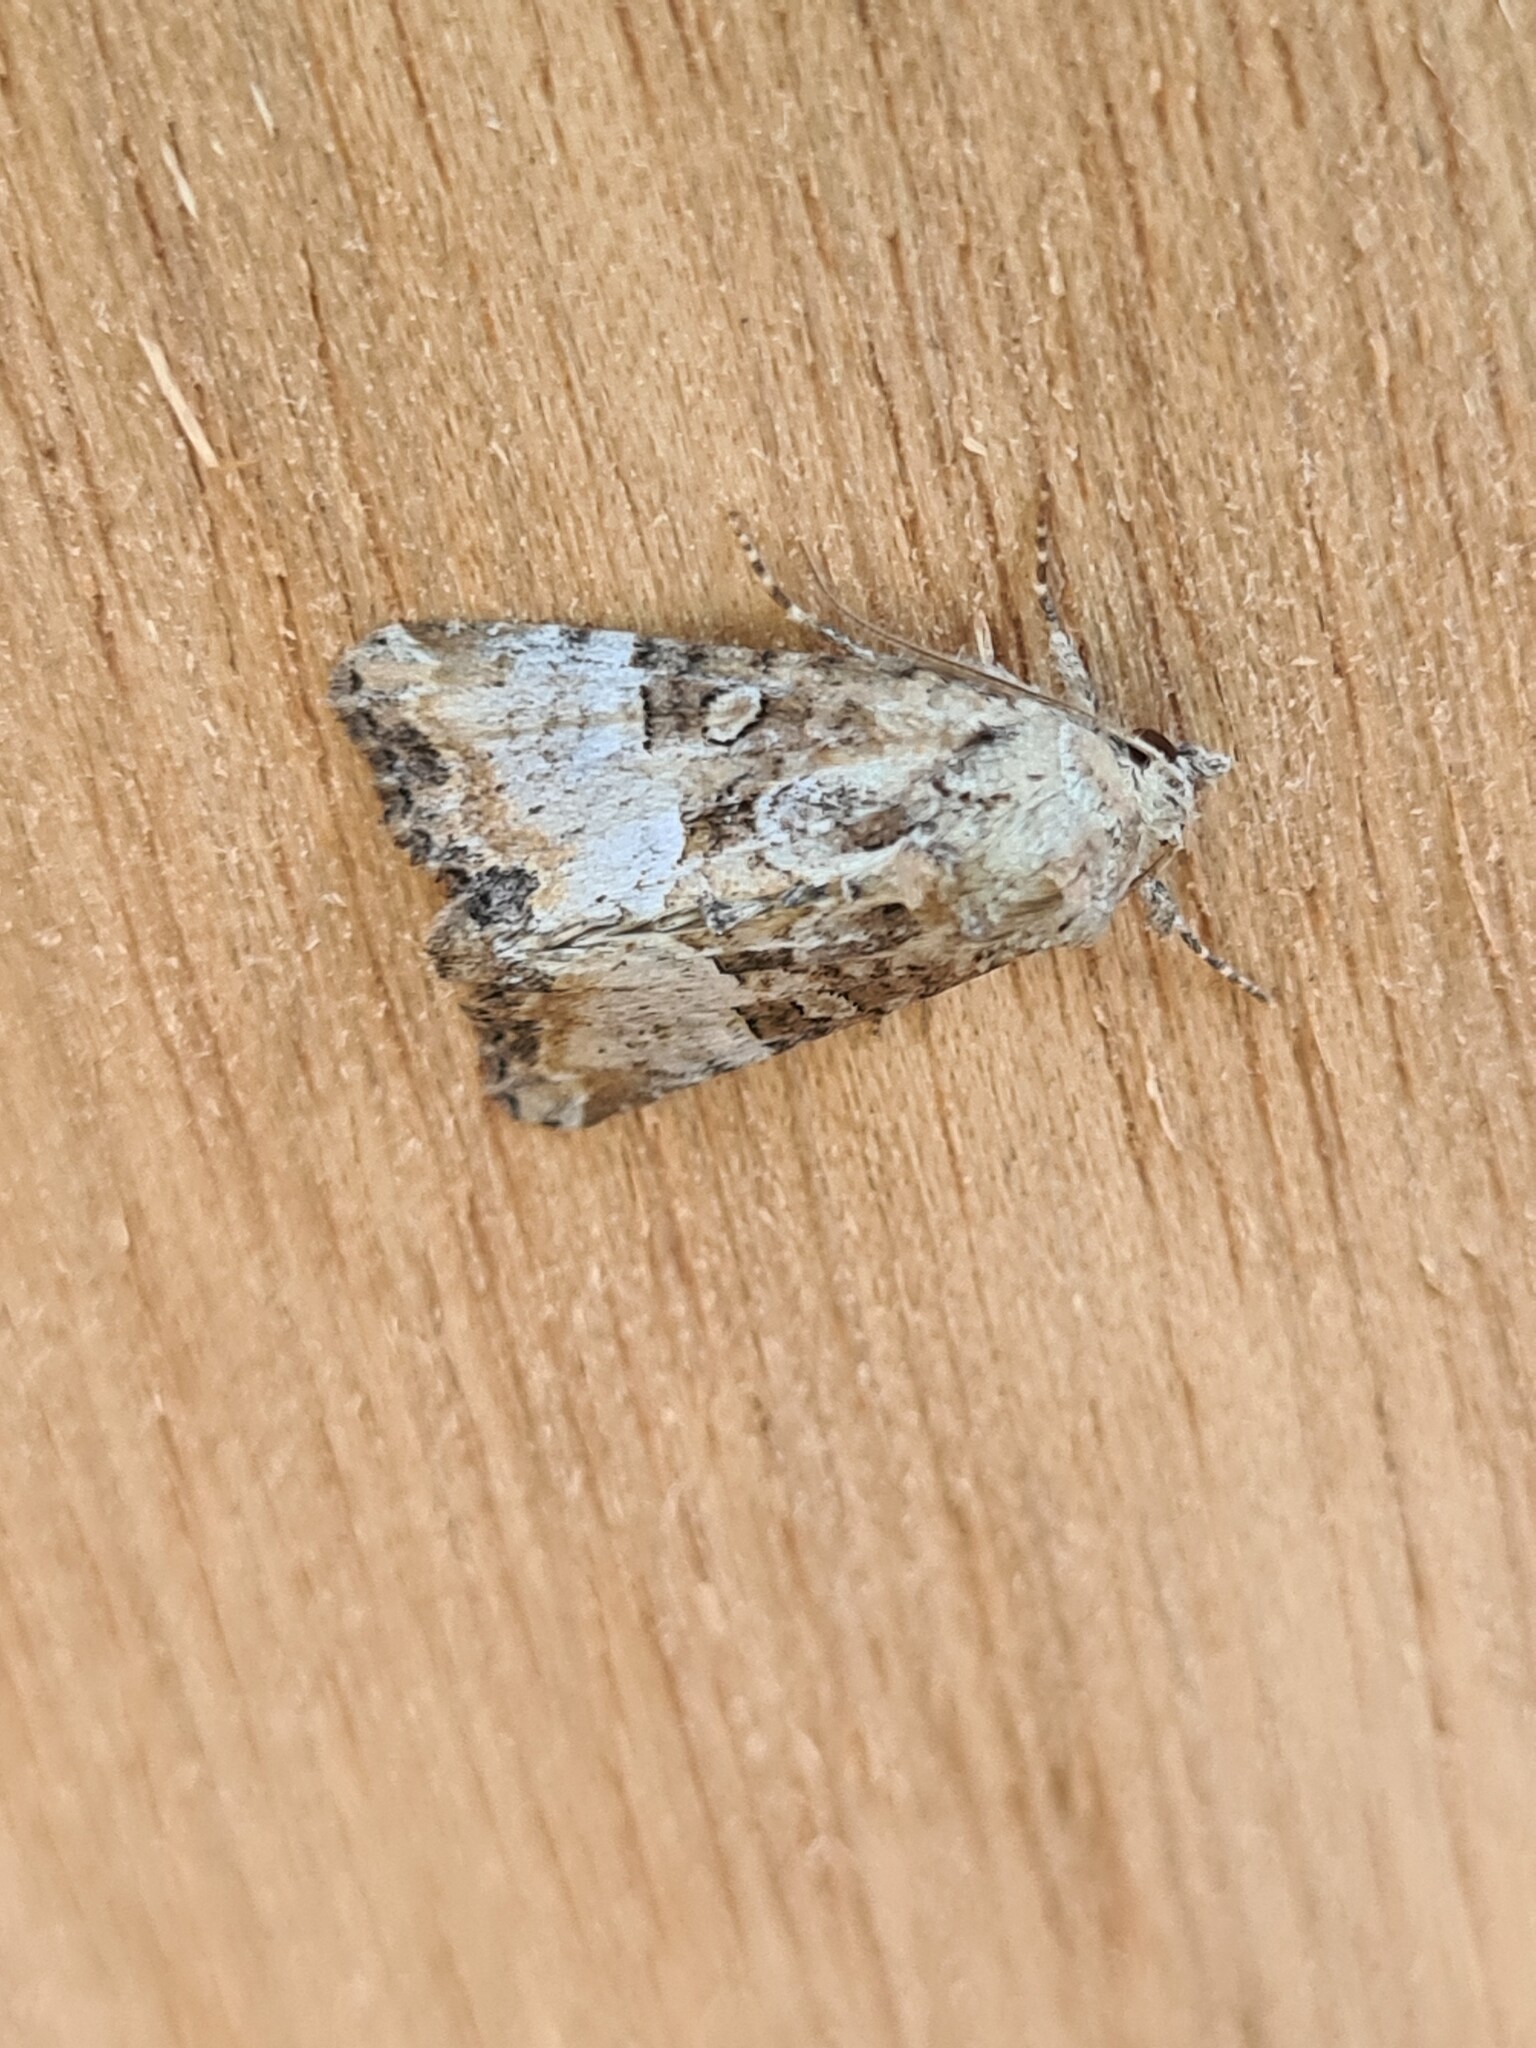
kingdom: Animalia
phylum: Arthropoda
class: Insecta
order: Lepidoptera
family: Noctuidae
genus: Mesoligia
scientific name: Mesoligia furuncula
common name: Cloaked minor
